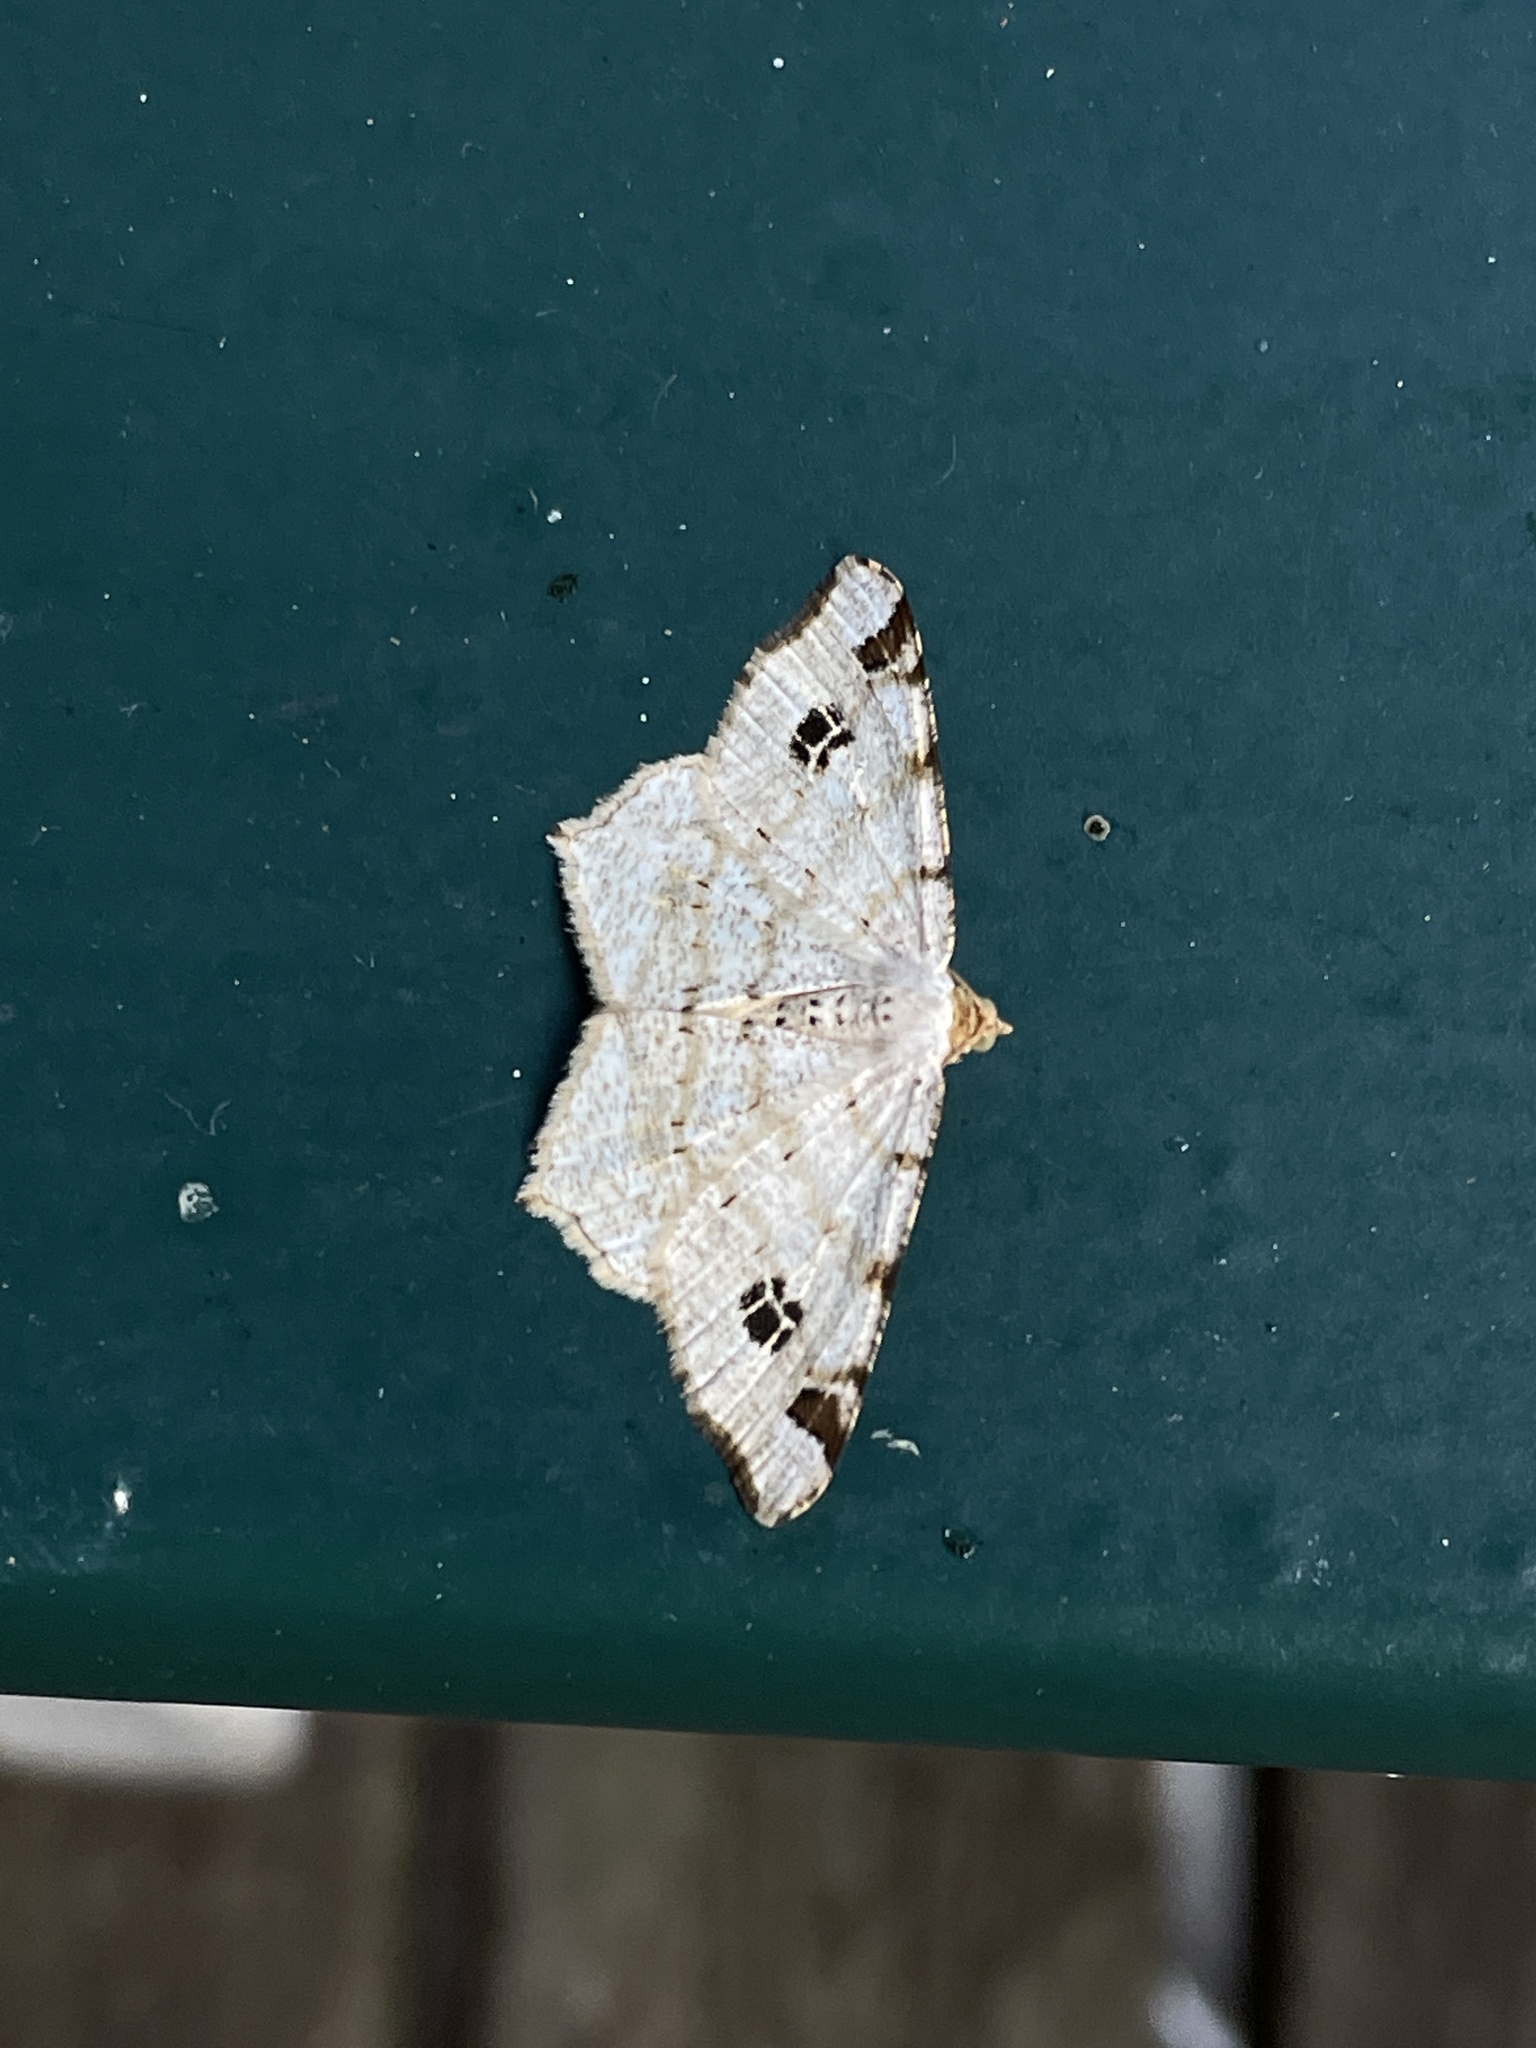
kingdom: Animalia
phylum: Arthropoda
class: Insecta
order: Lepidoptera
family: Geometridae
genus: Macaria
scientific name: Macaria notata
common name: Peacock moth
